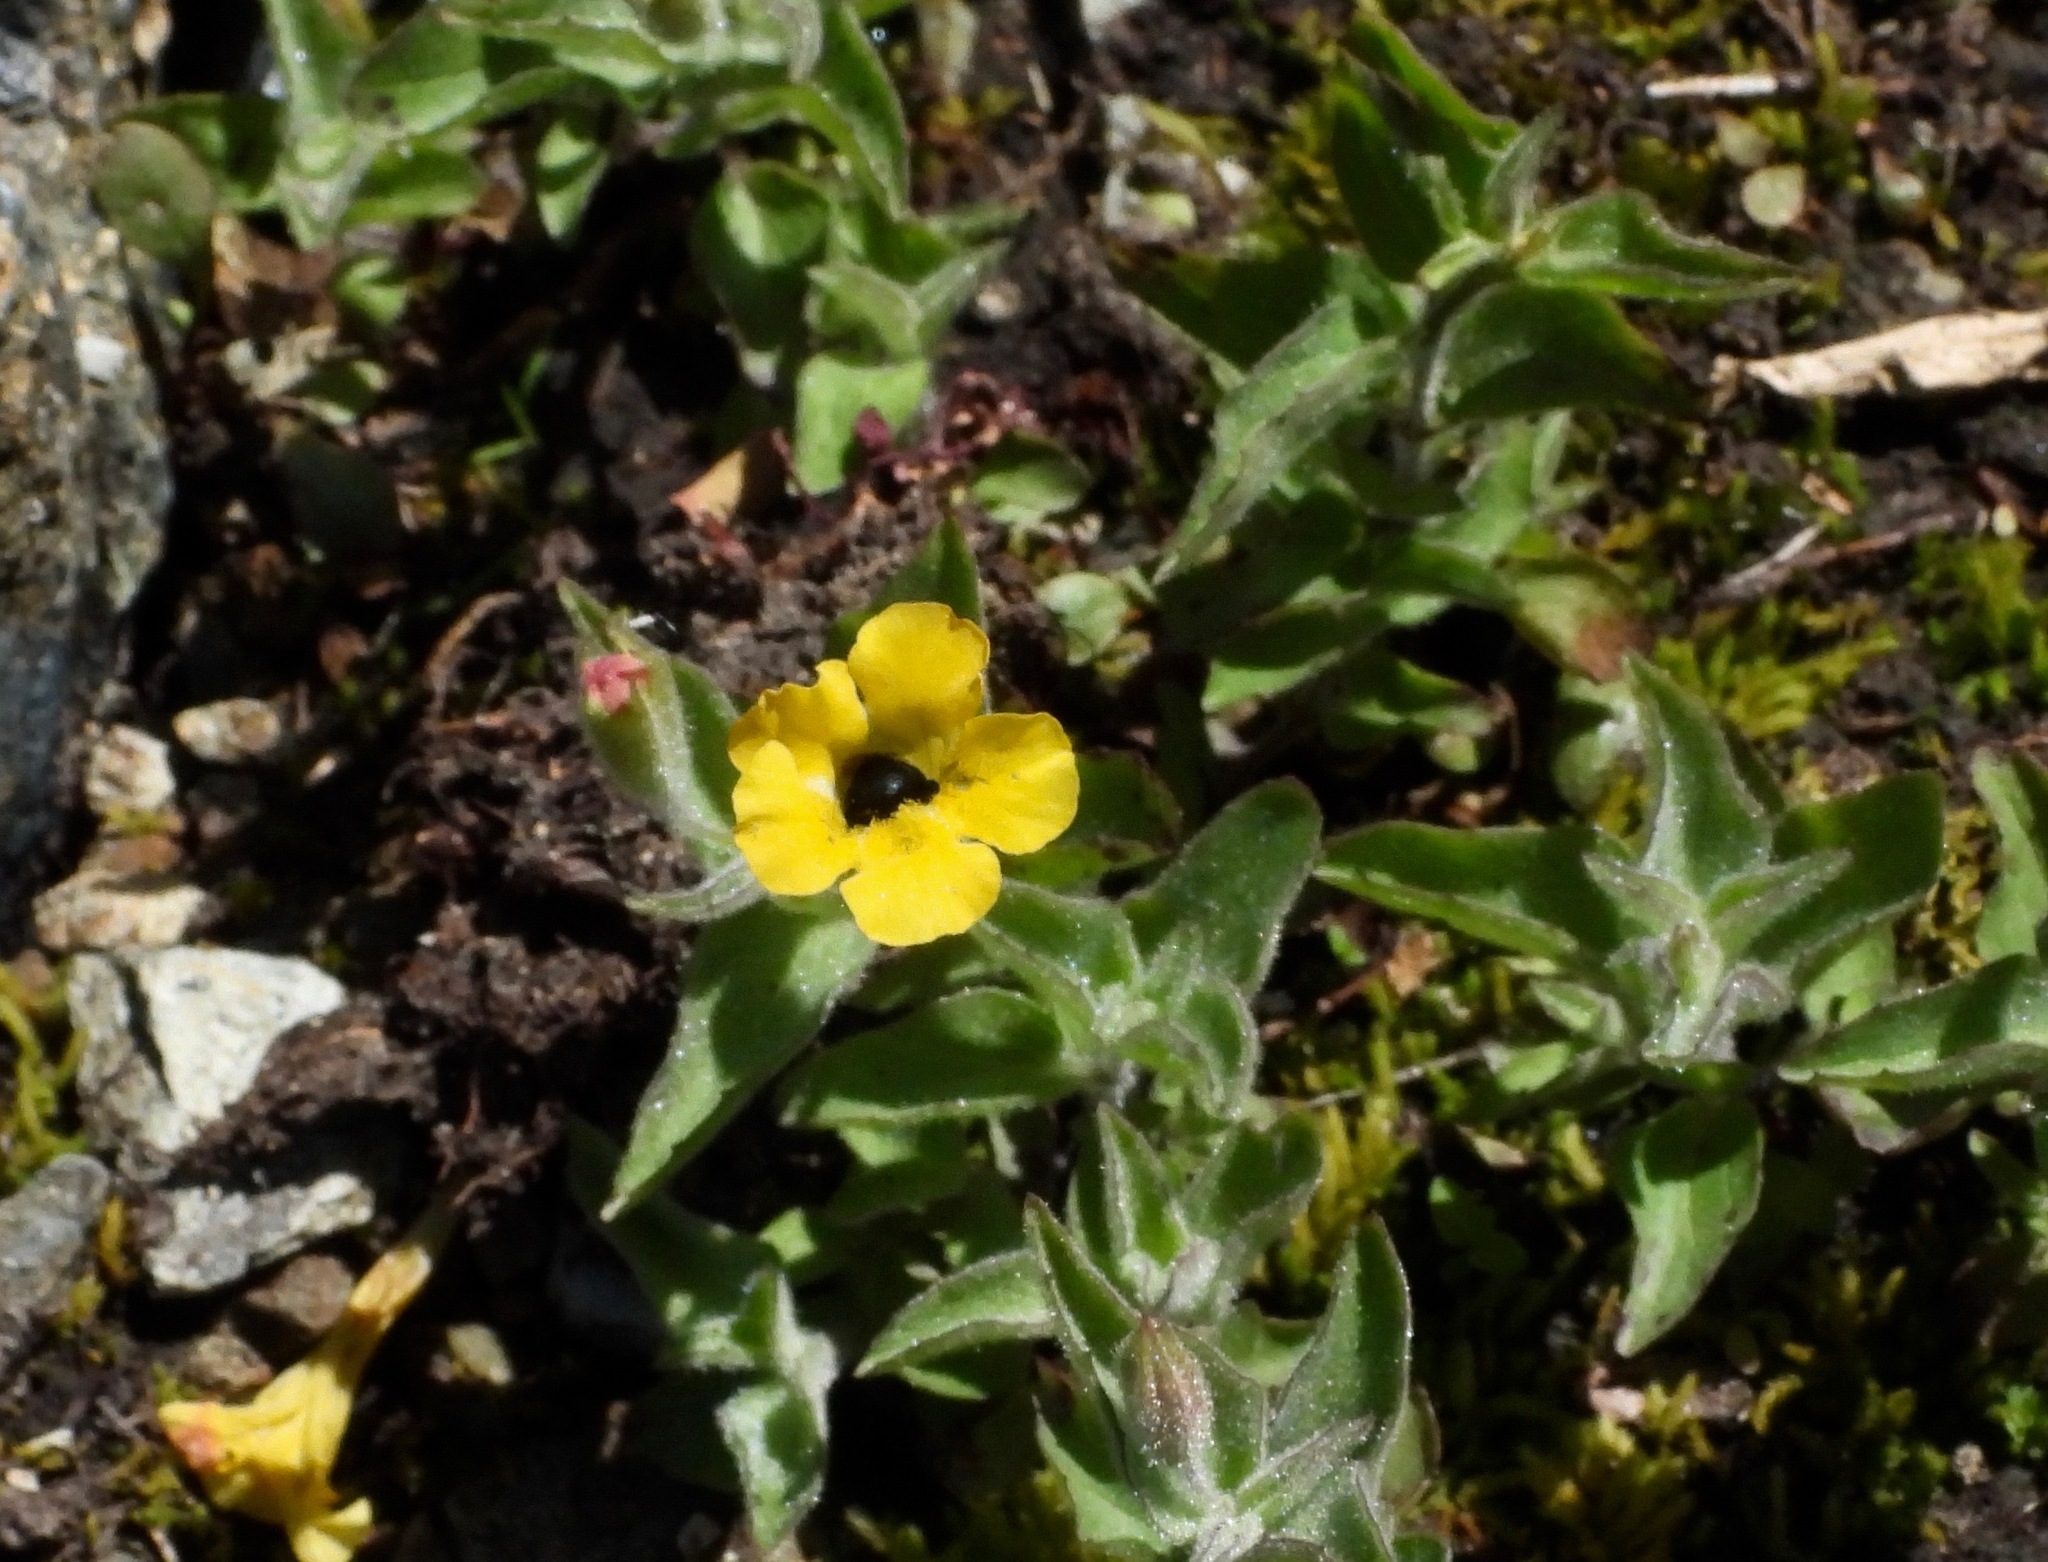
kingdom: Plantae
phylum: Tracheophyta
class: Magnoliopsida
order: Lamiales
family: Phrymaceae
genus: Erythranthe
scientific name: Erythranthe moschata
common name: Muskflower
